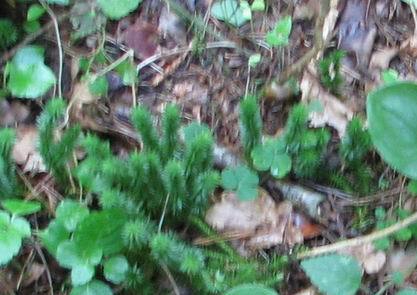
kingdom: Plantae
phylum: Tracheophyta
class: Lycopodiopsida
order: Lycopodiales
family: Lycopodiaceae
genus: Huperzia
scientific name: Huperzia selago
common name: Northern firmoss
